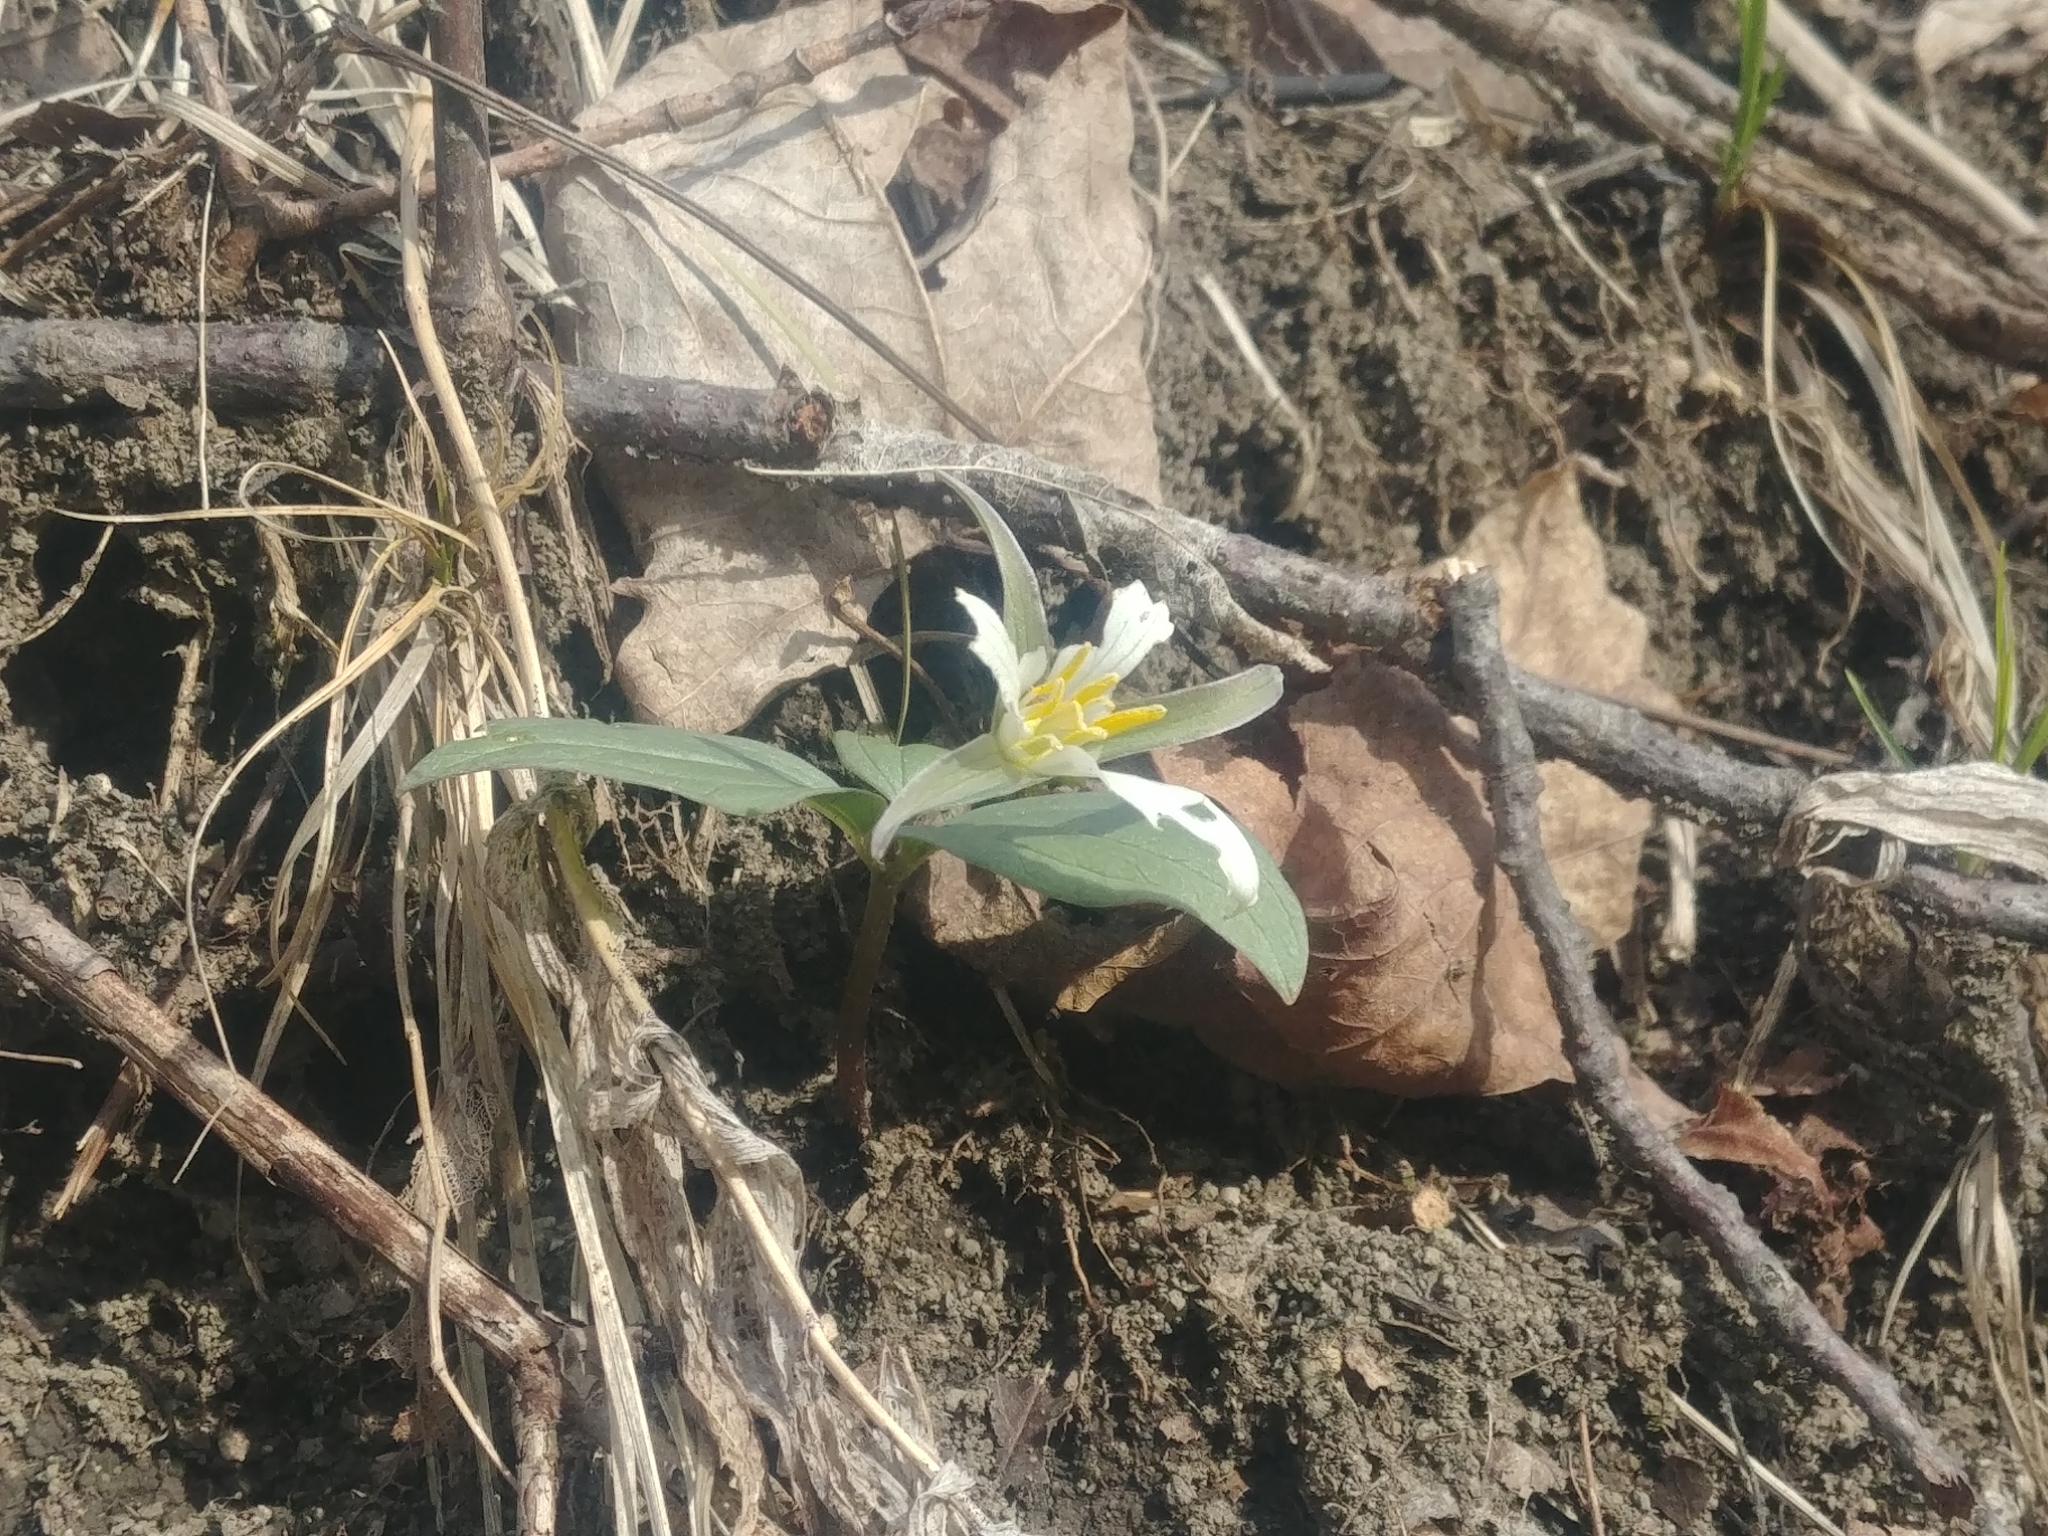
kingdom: Plantae
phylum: Tracheophyta
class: Liliopsida
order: Liliales
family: Melanthiaceae
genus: Trillium
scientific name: Trillium nivale
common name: Dwarf white trillium
